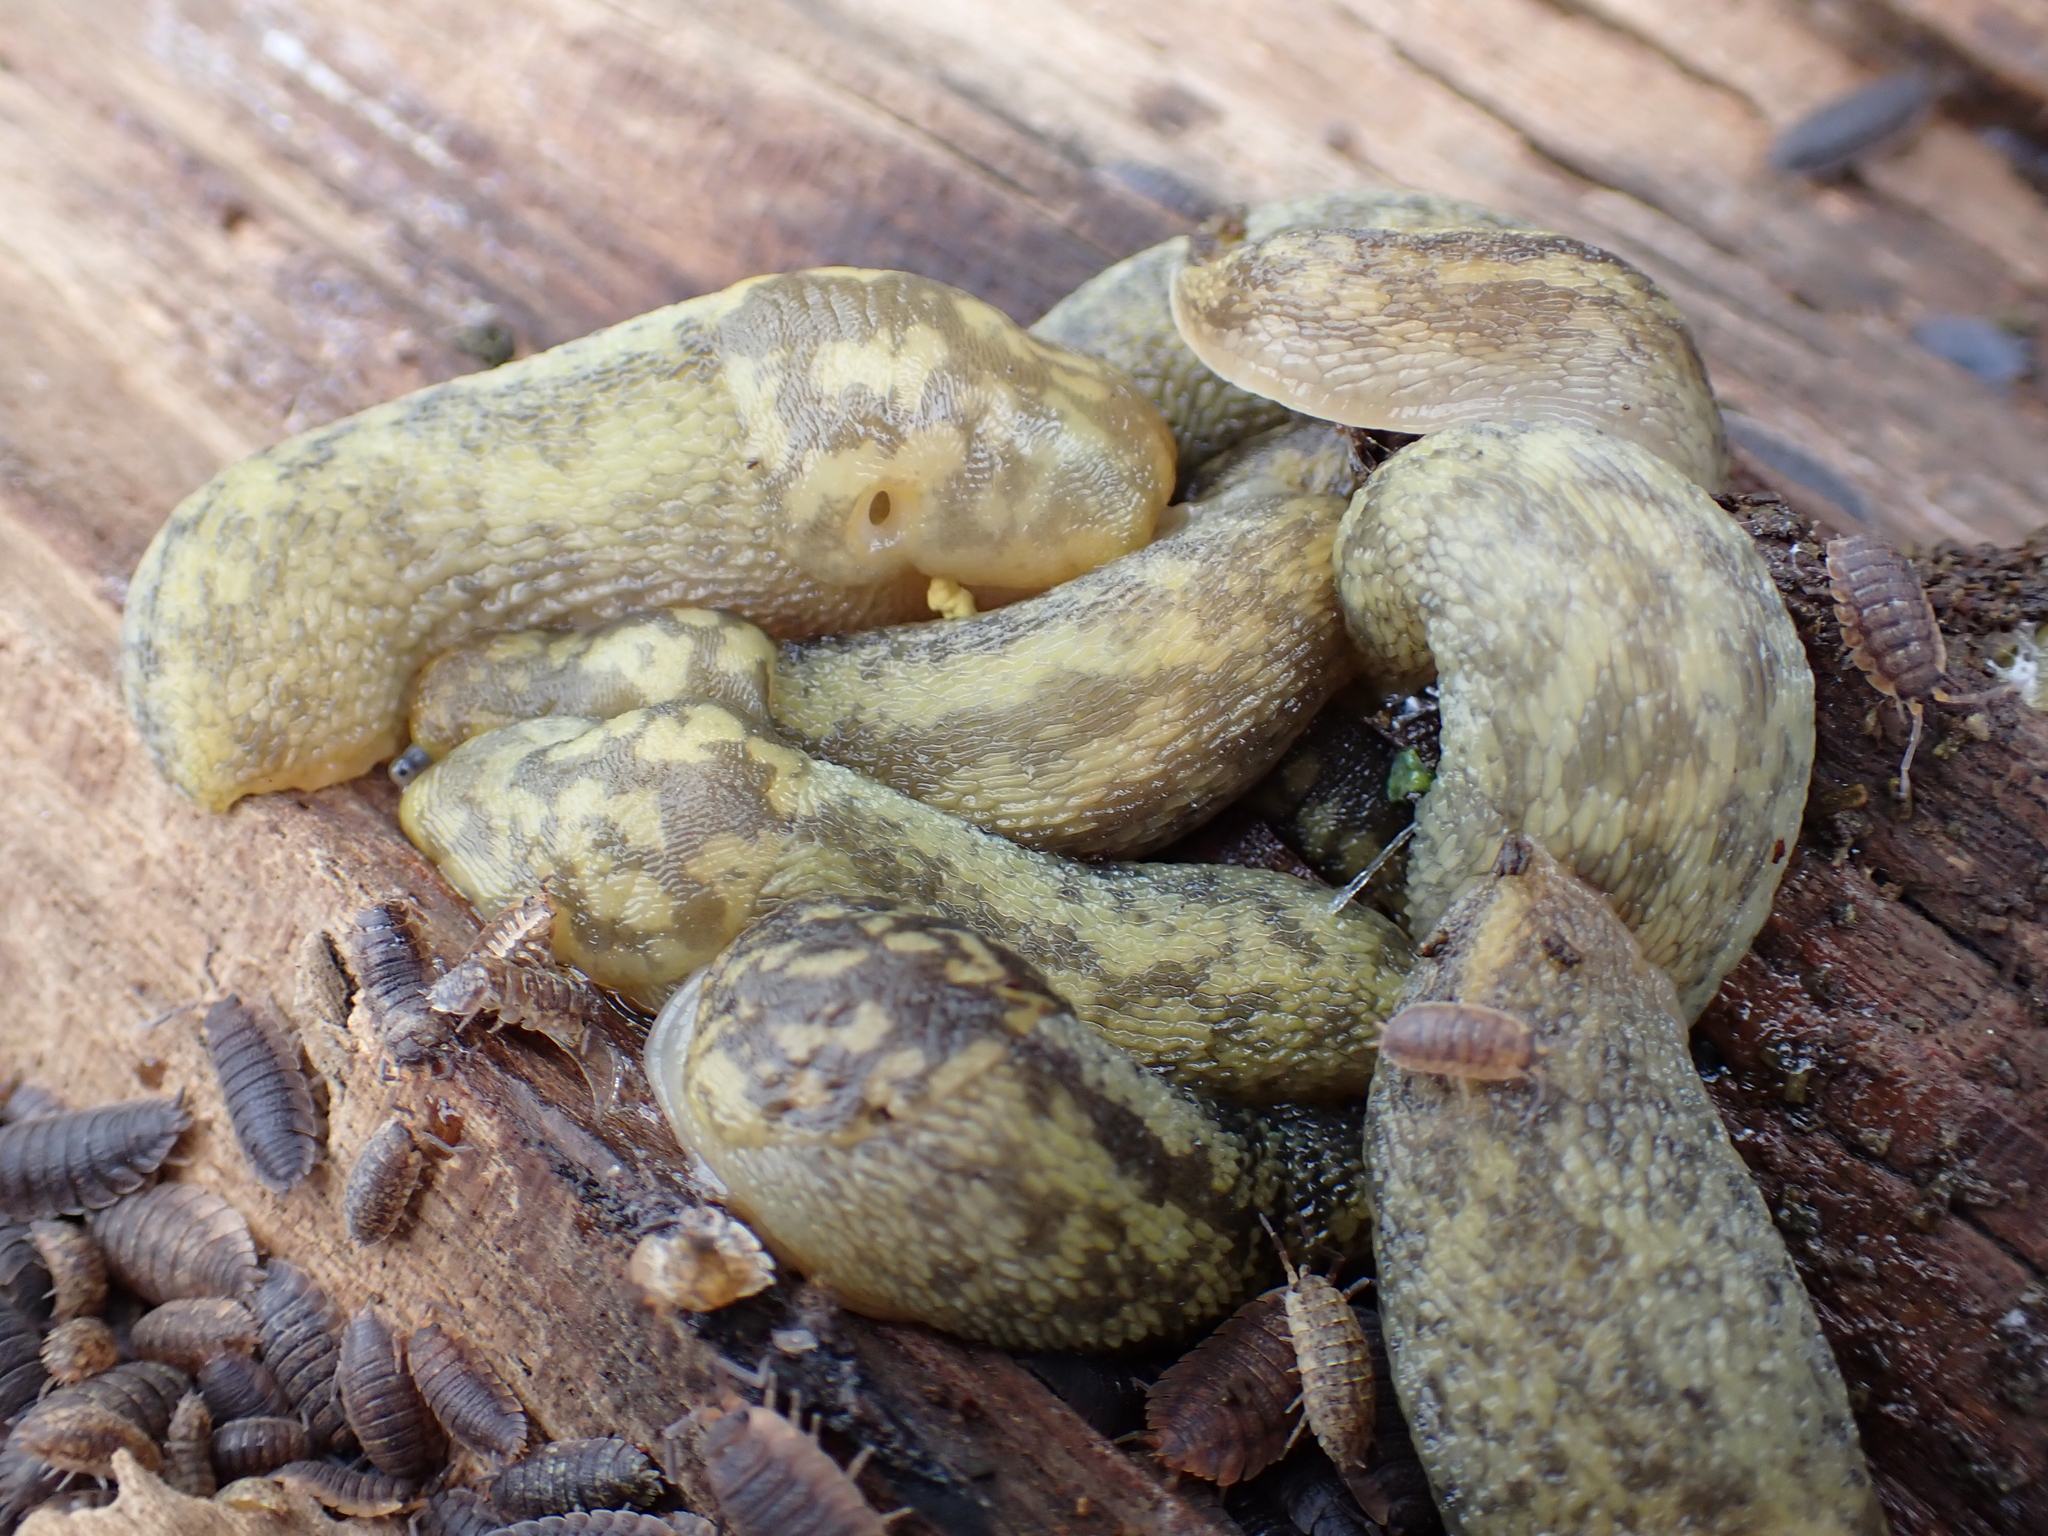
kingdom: Animalia
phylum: Mollusca
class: Gastropoda
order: Stylommatophora
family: Limacidae
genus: Limacus
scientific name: Limacus maculatus
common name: Irish yellow slug
